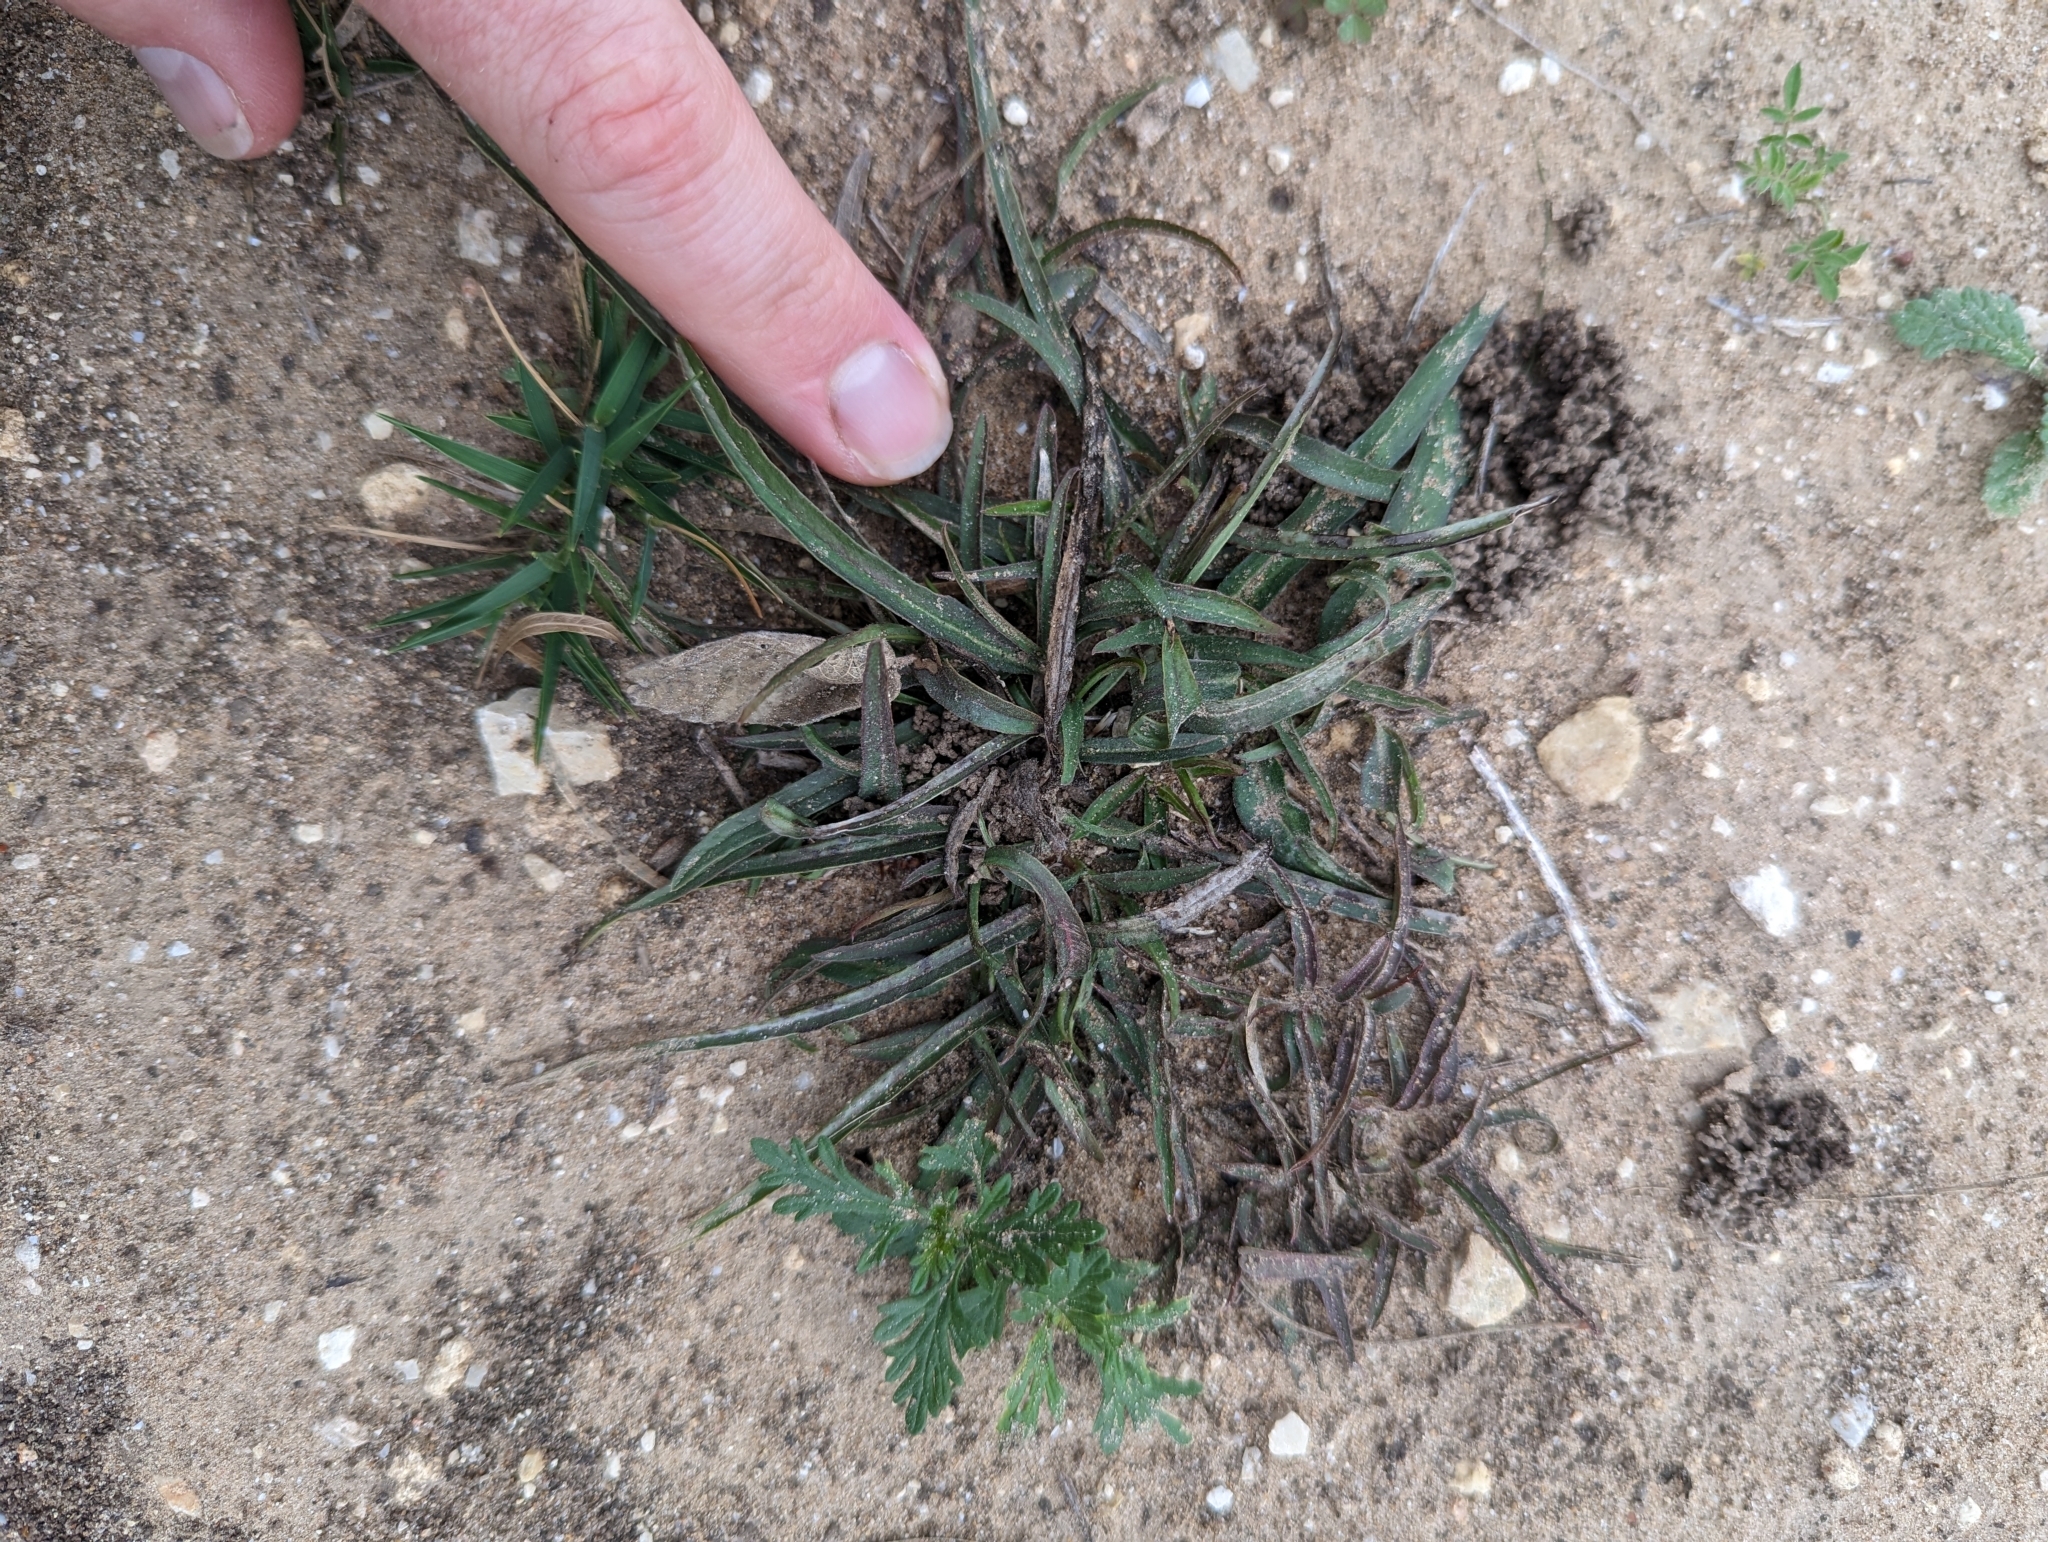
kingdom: Plantae
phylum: Tracheophyta
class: Magnoliopsida
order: Piperales
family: Aristolochiaceae
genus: Aristolochia
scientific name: Aristolochia erecta
